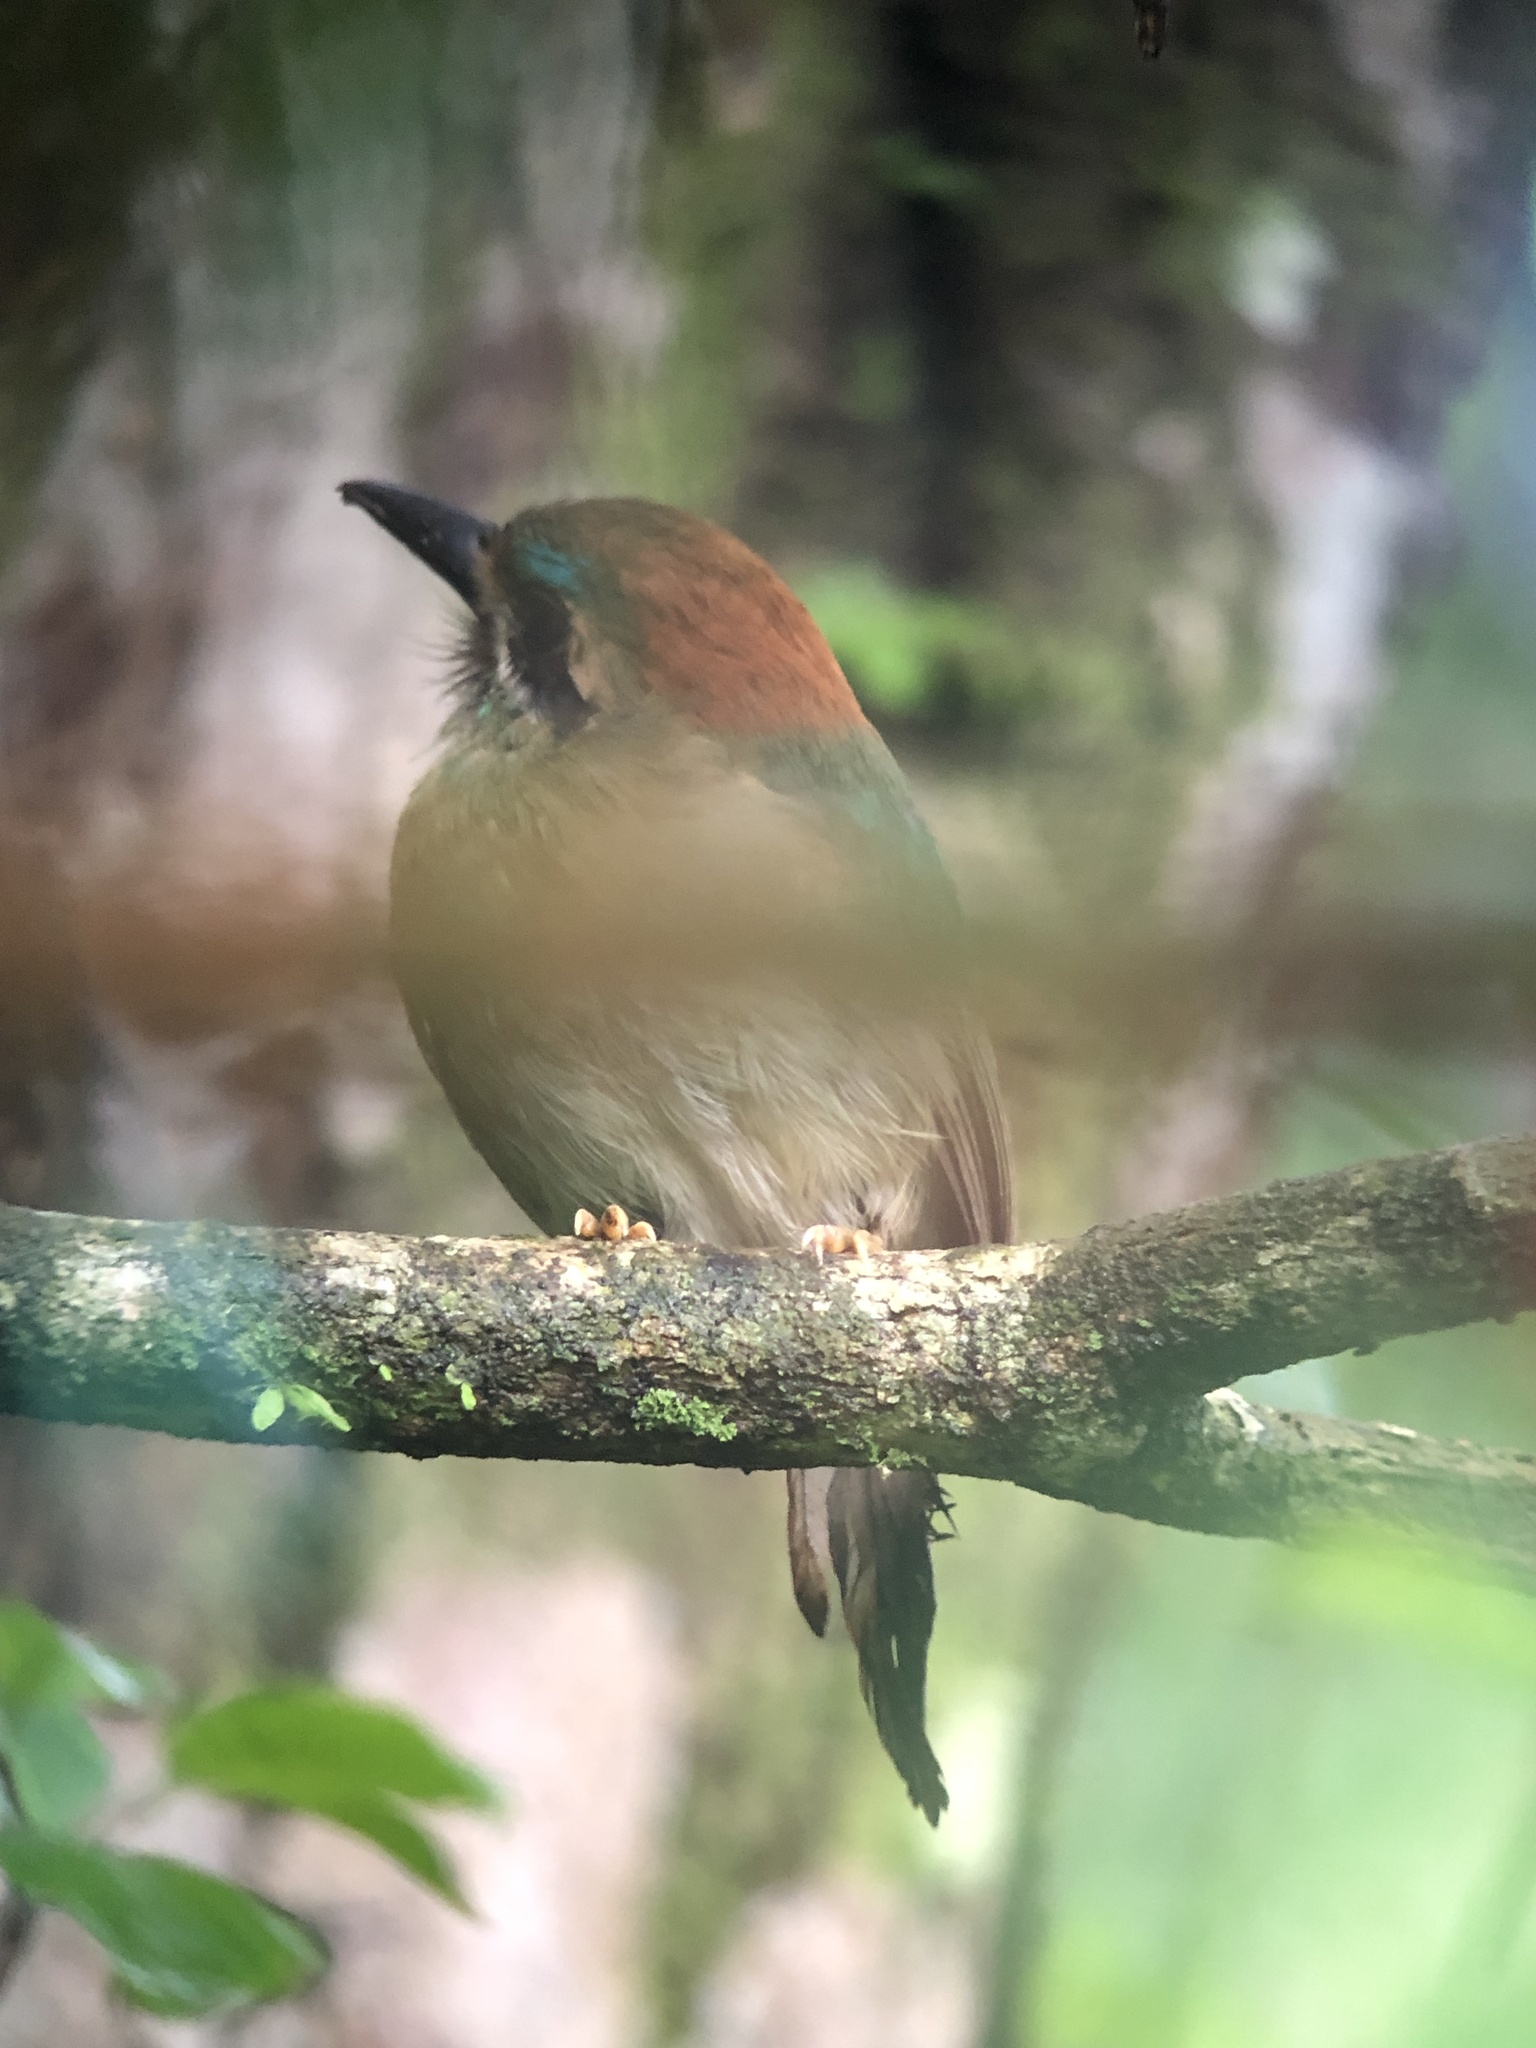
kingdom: Animalia
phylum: Chordata
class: Aves
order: Coraciiformes
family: Momotidae
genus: Hylomanes
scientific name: Hylomanes momotula
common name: Tody motmot
